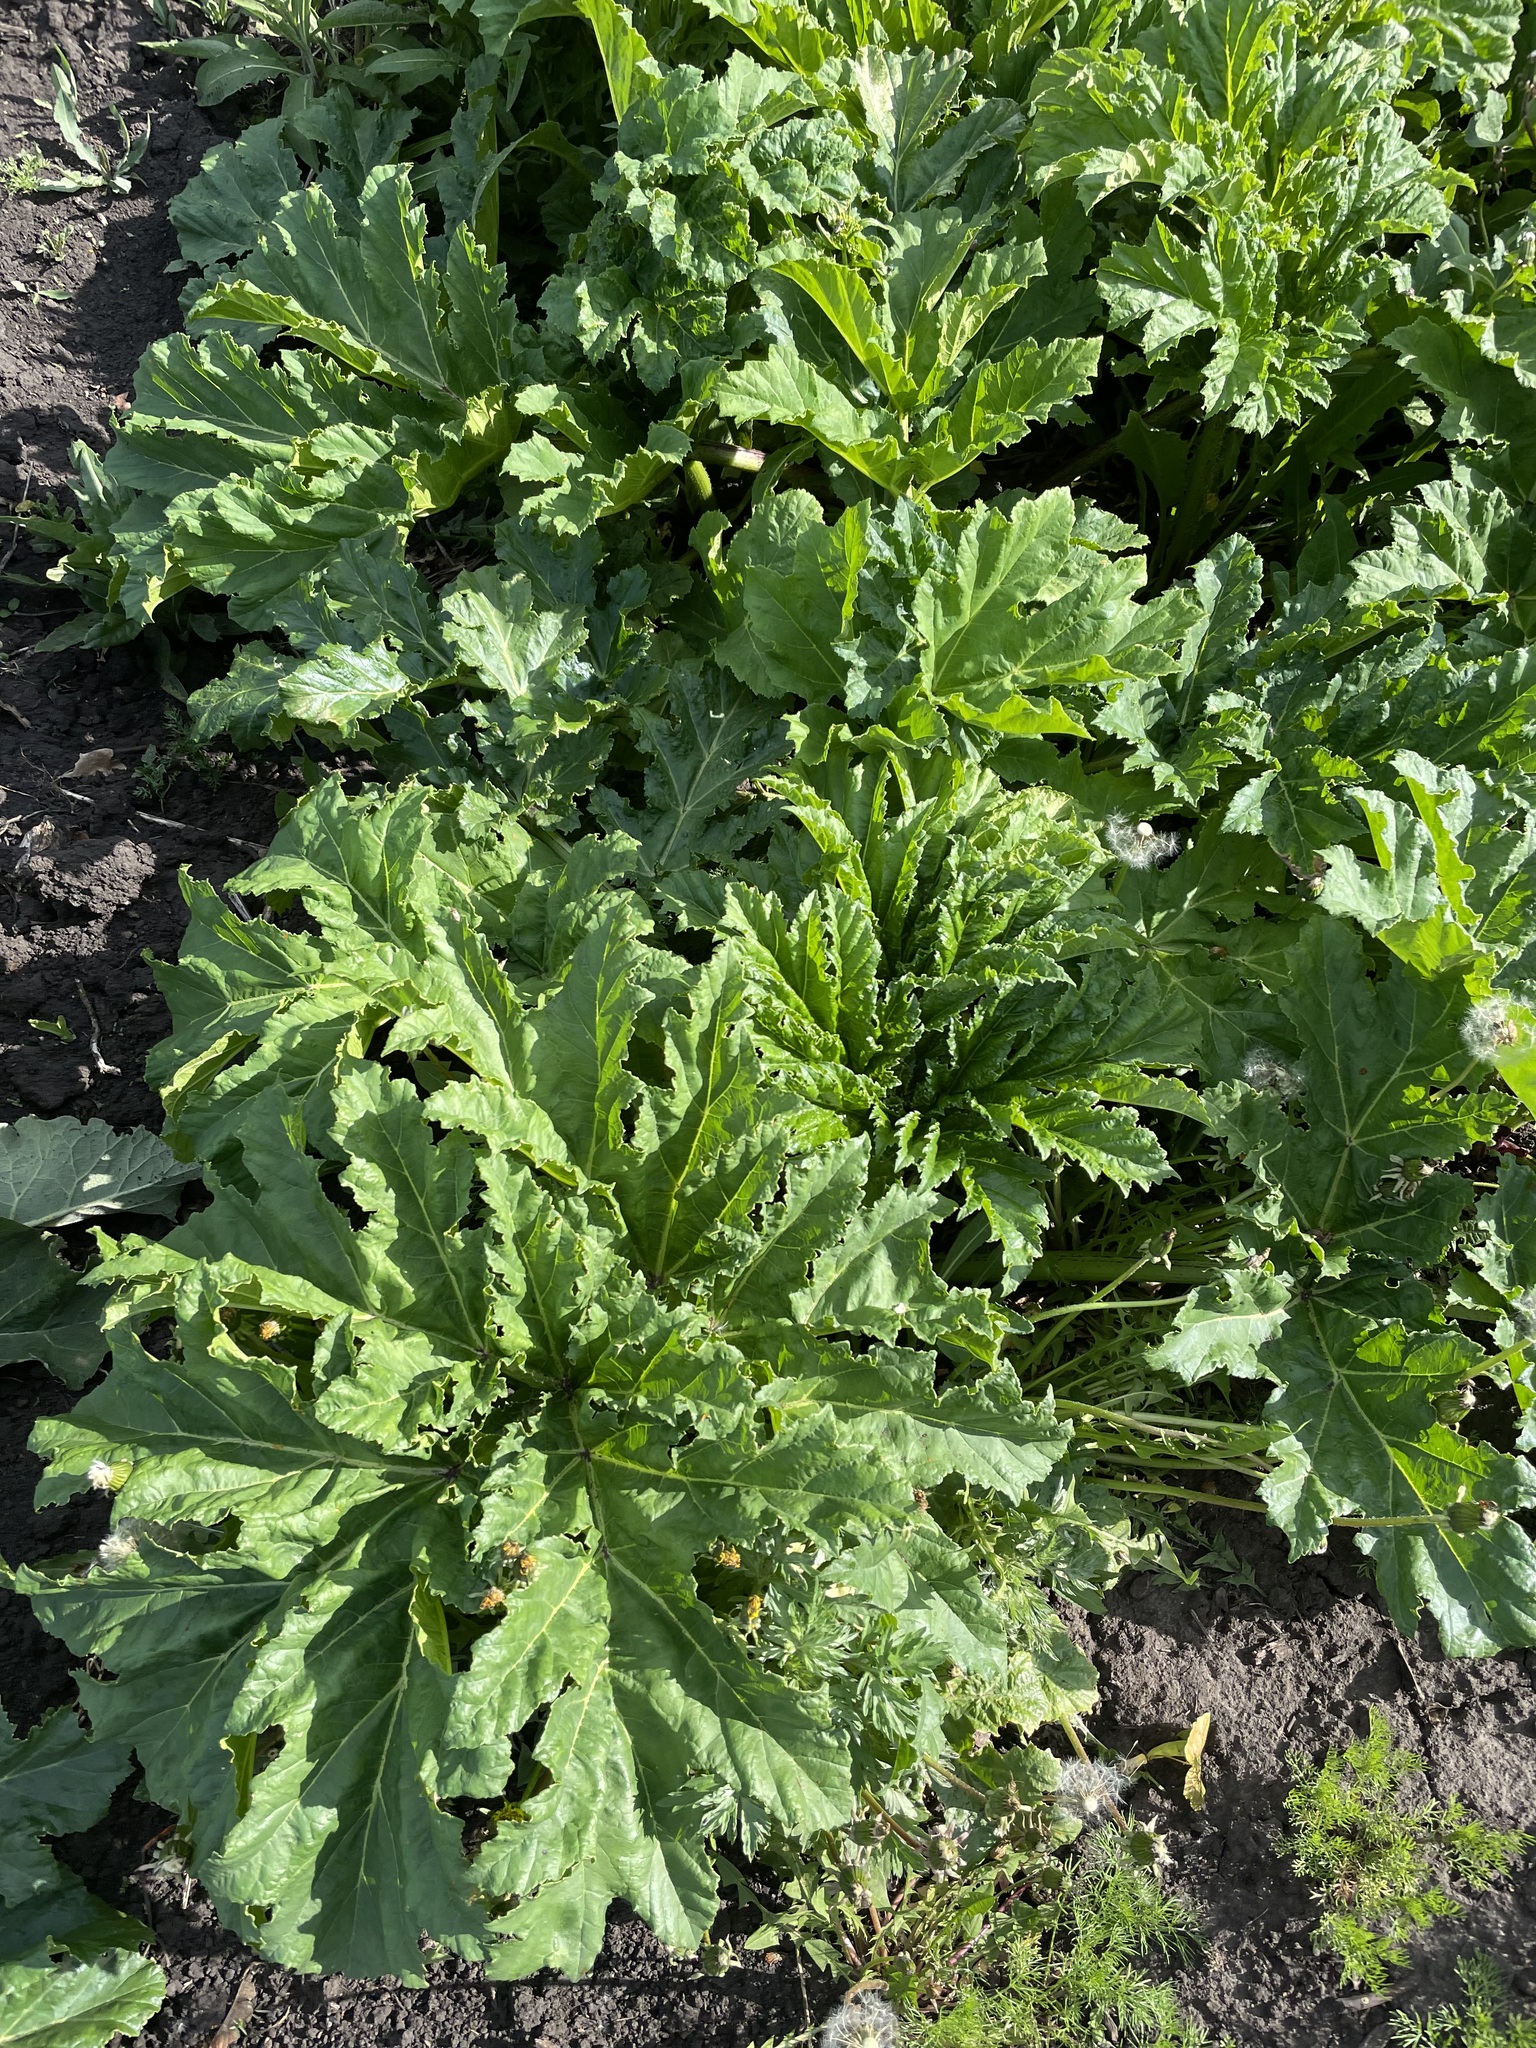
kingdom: Plantae
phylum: Tracheophyta
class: Magnoliopsida
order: Apiales
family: Apiaceae
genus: Heracleum
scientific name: Heracleum sosnowskyi
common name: Sosnowsky's hogweed
